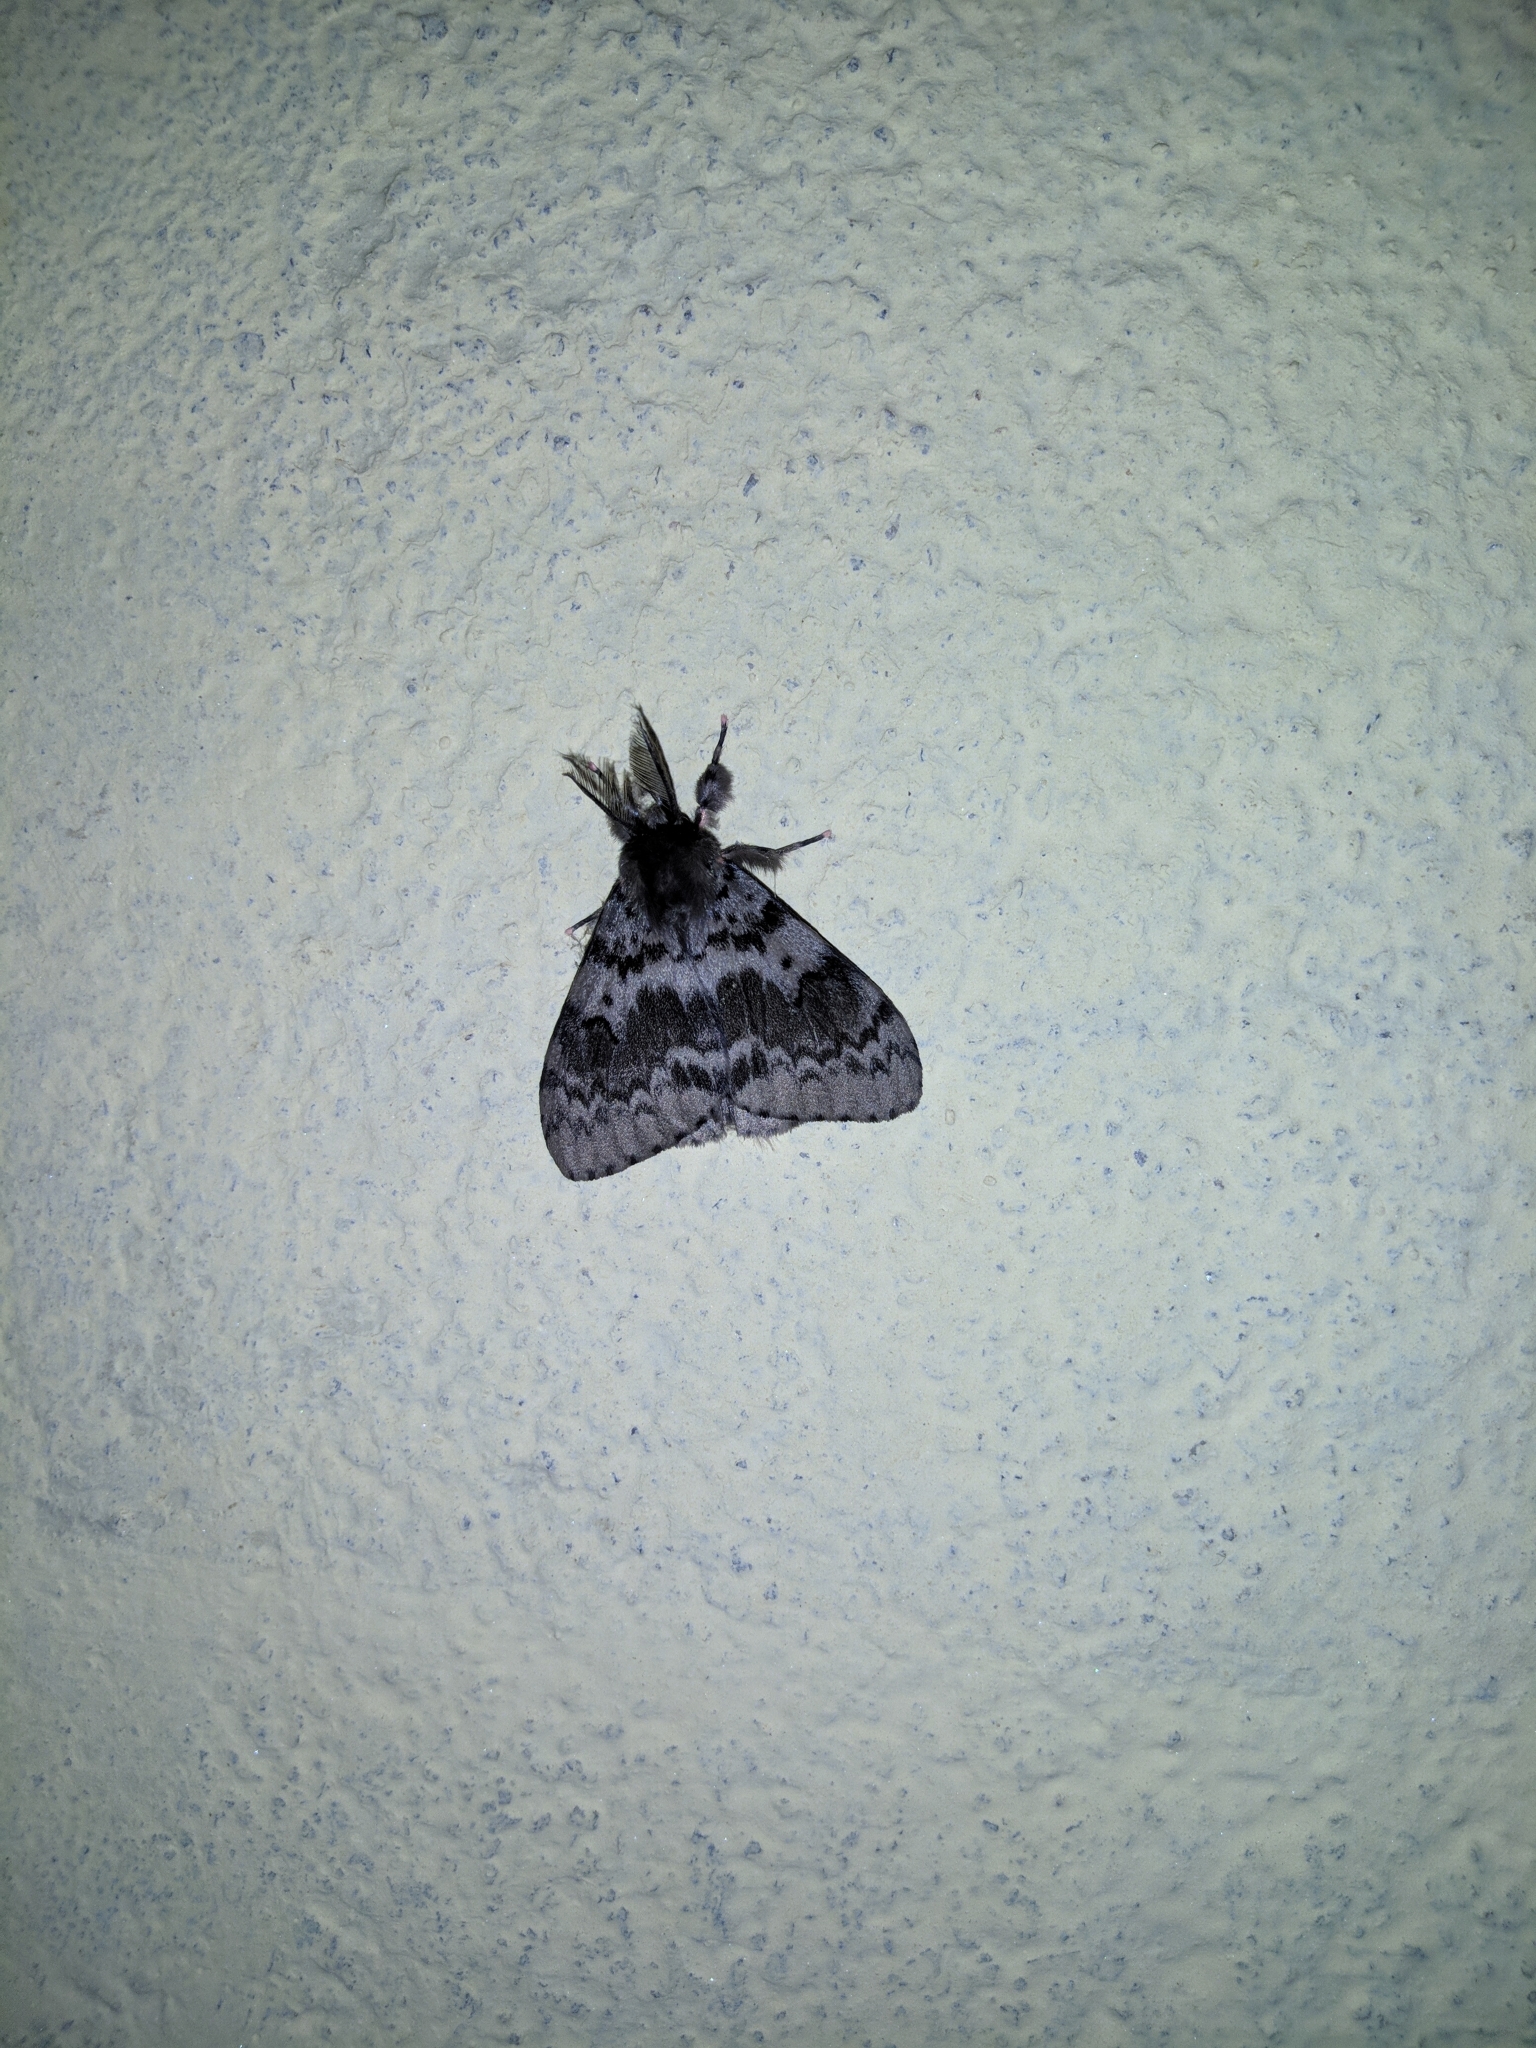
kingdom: Animalia
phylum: Arthropoda
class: Insecta
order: Lepidoptera
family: Erebidae
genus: Lymantria
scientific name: Lymantria incerta
